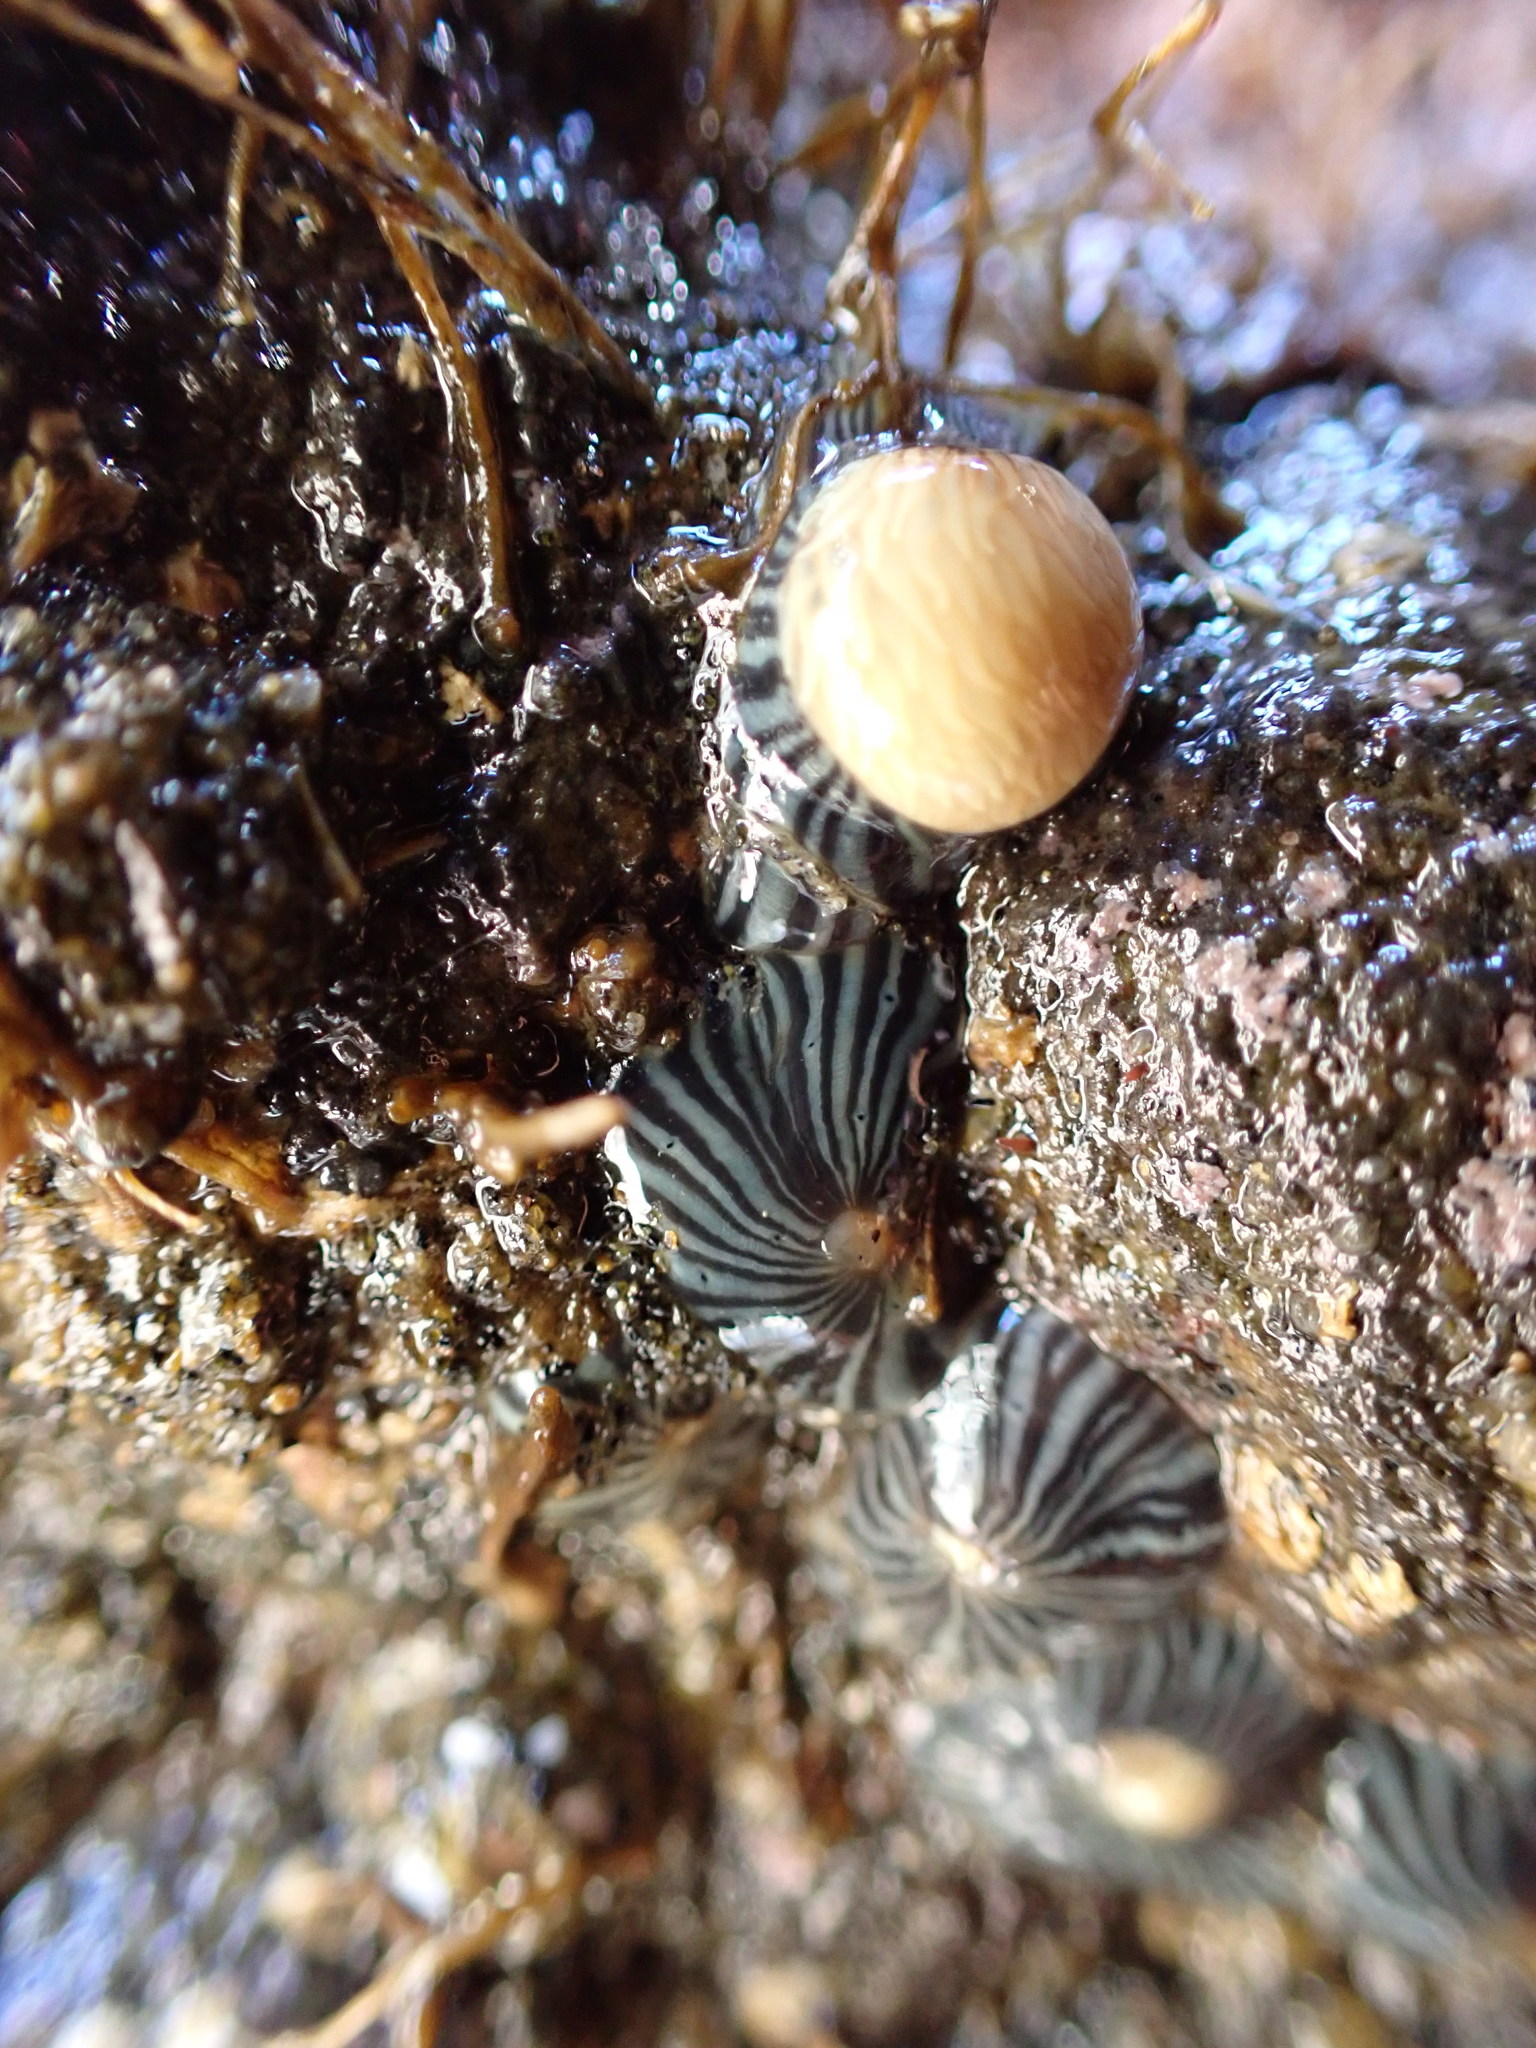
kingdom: Animalia
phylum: Cnidaria
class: Anthozoa
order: Actiniaria
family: Diadumenidae
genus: Diadumene
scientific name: Diadumene neozelanica
